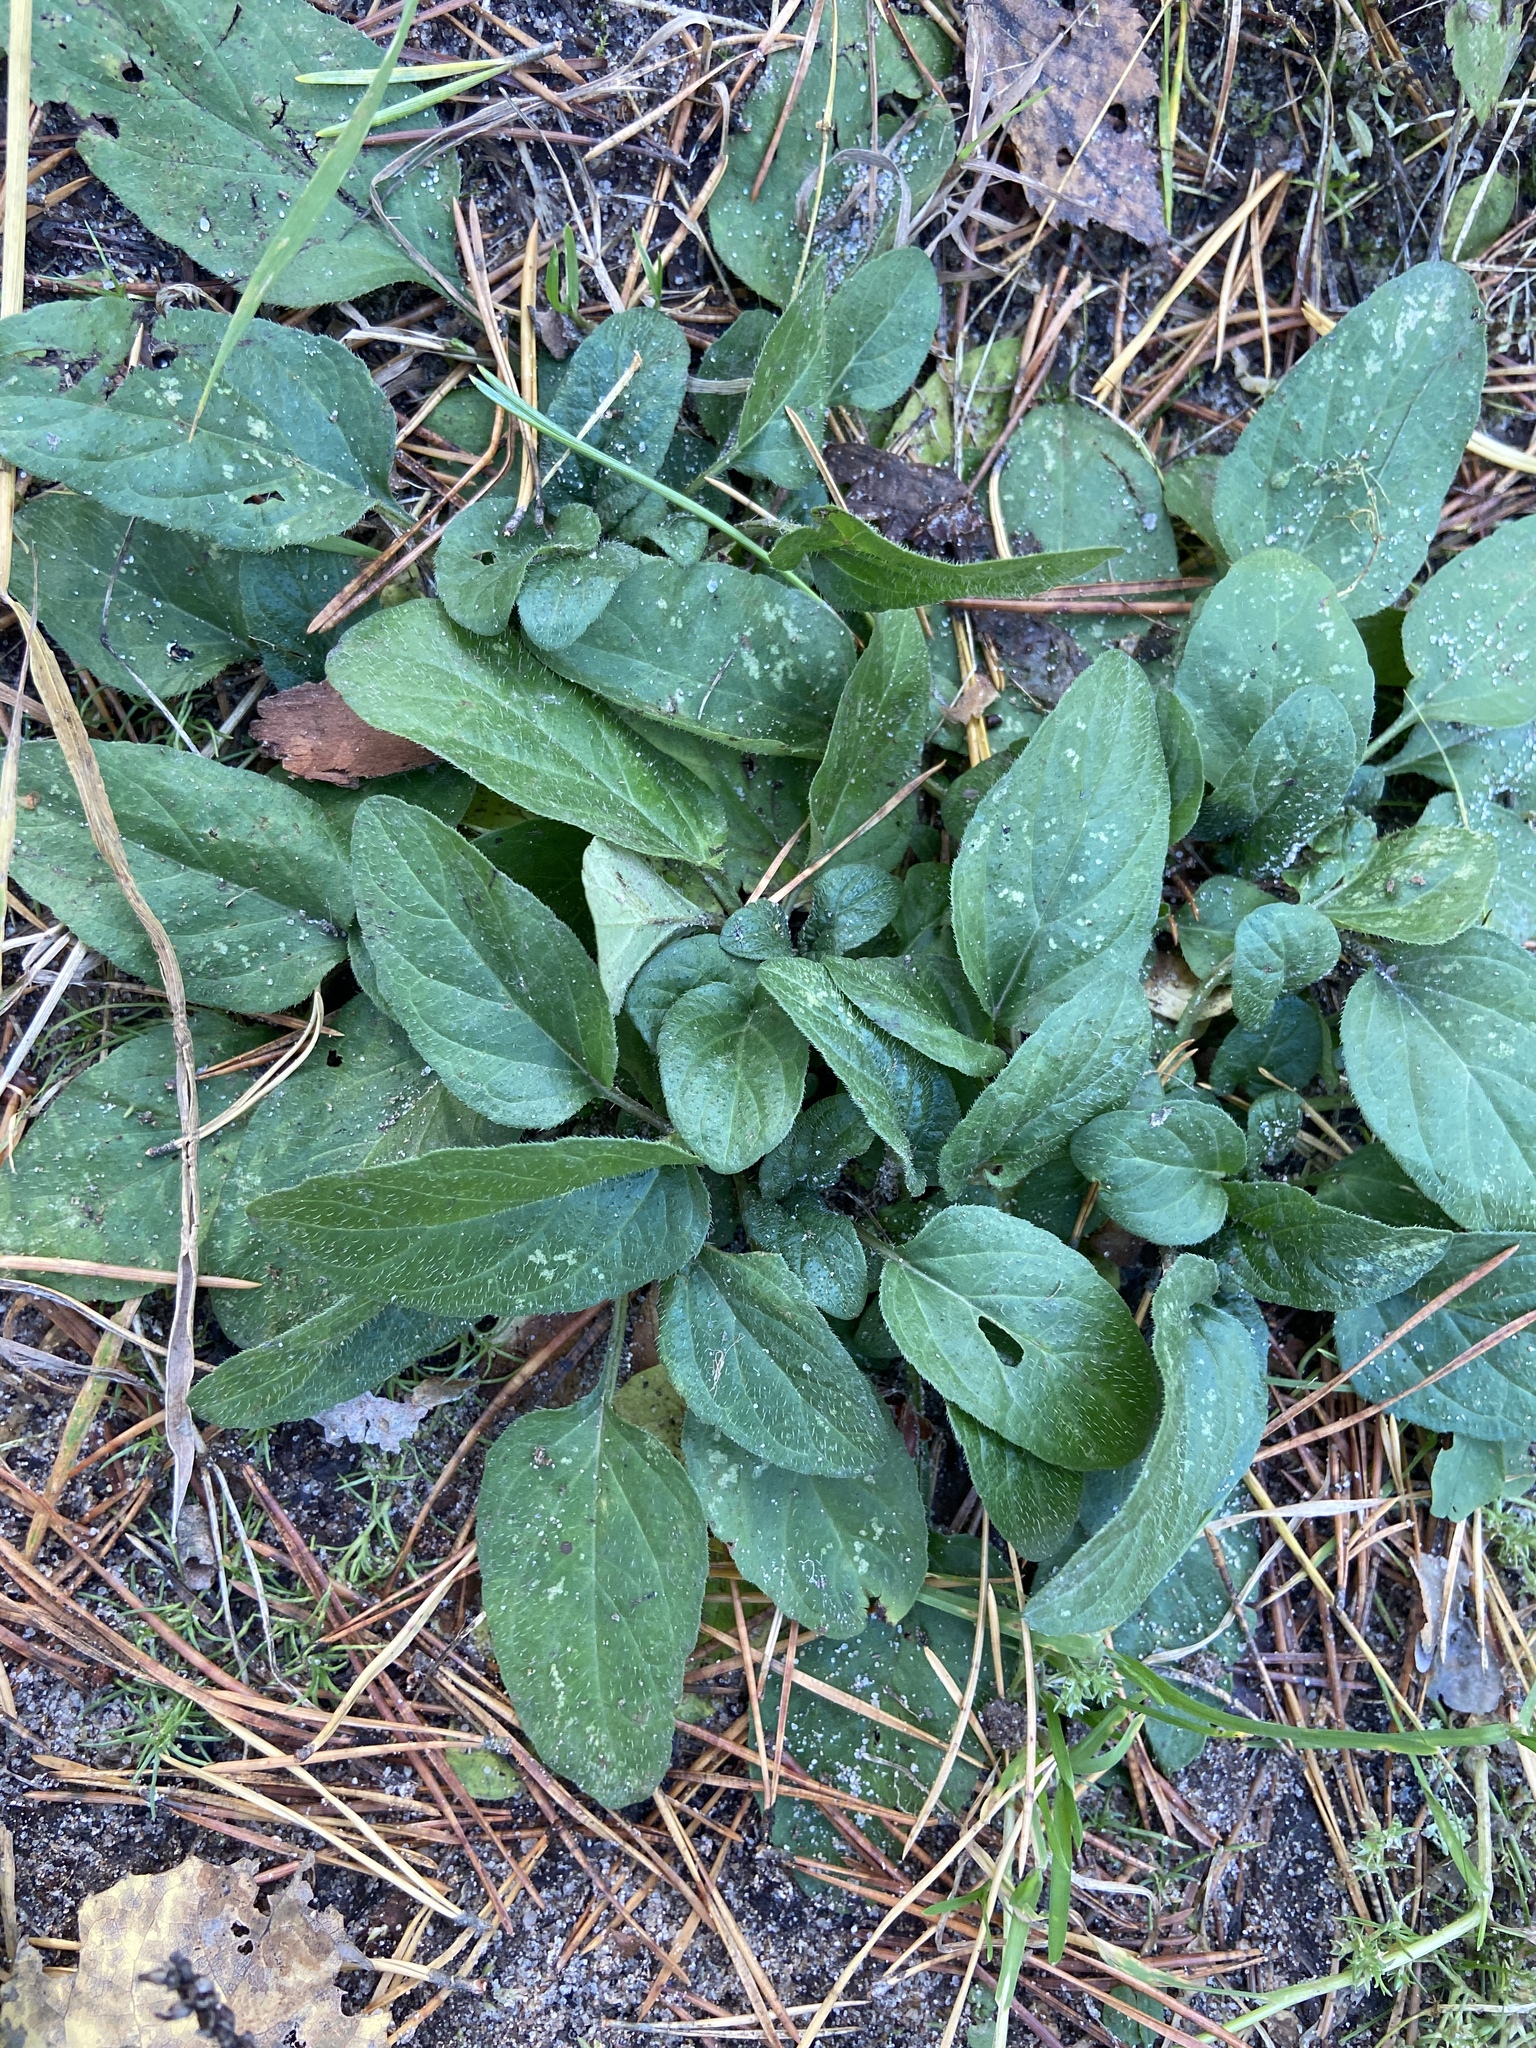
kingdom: Plantae
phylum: Tracheophyta
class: Magnoliopsida
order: Lamiales
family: Lamiaceae
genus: Prunella
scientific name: Prunella vulgaris
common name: Heal-all
